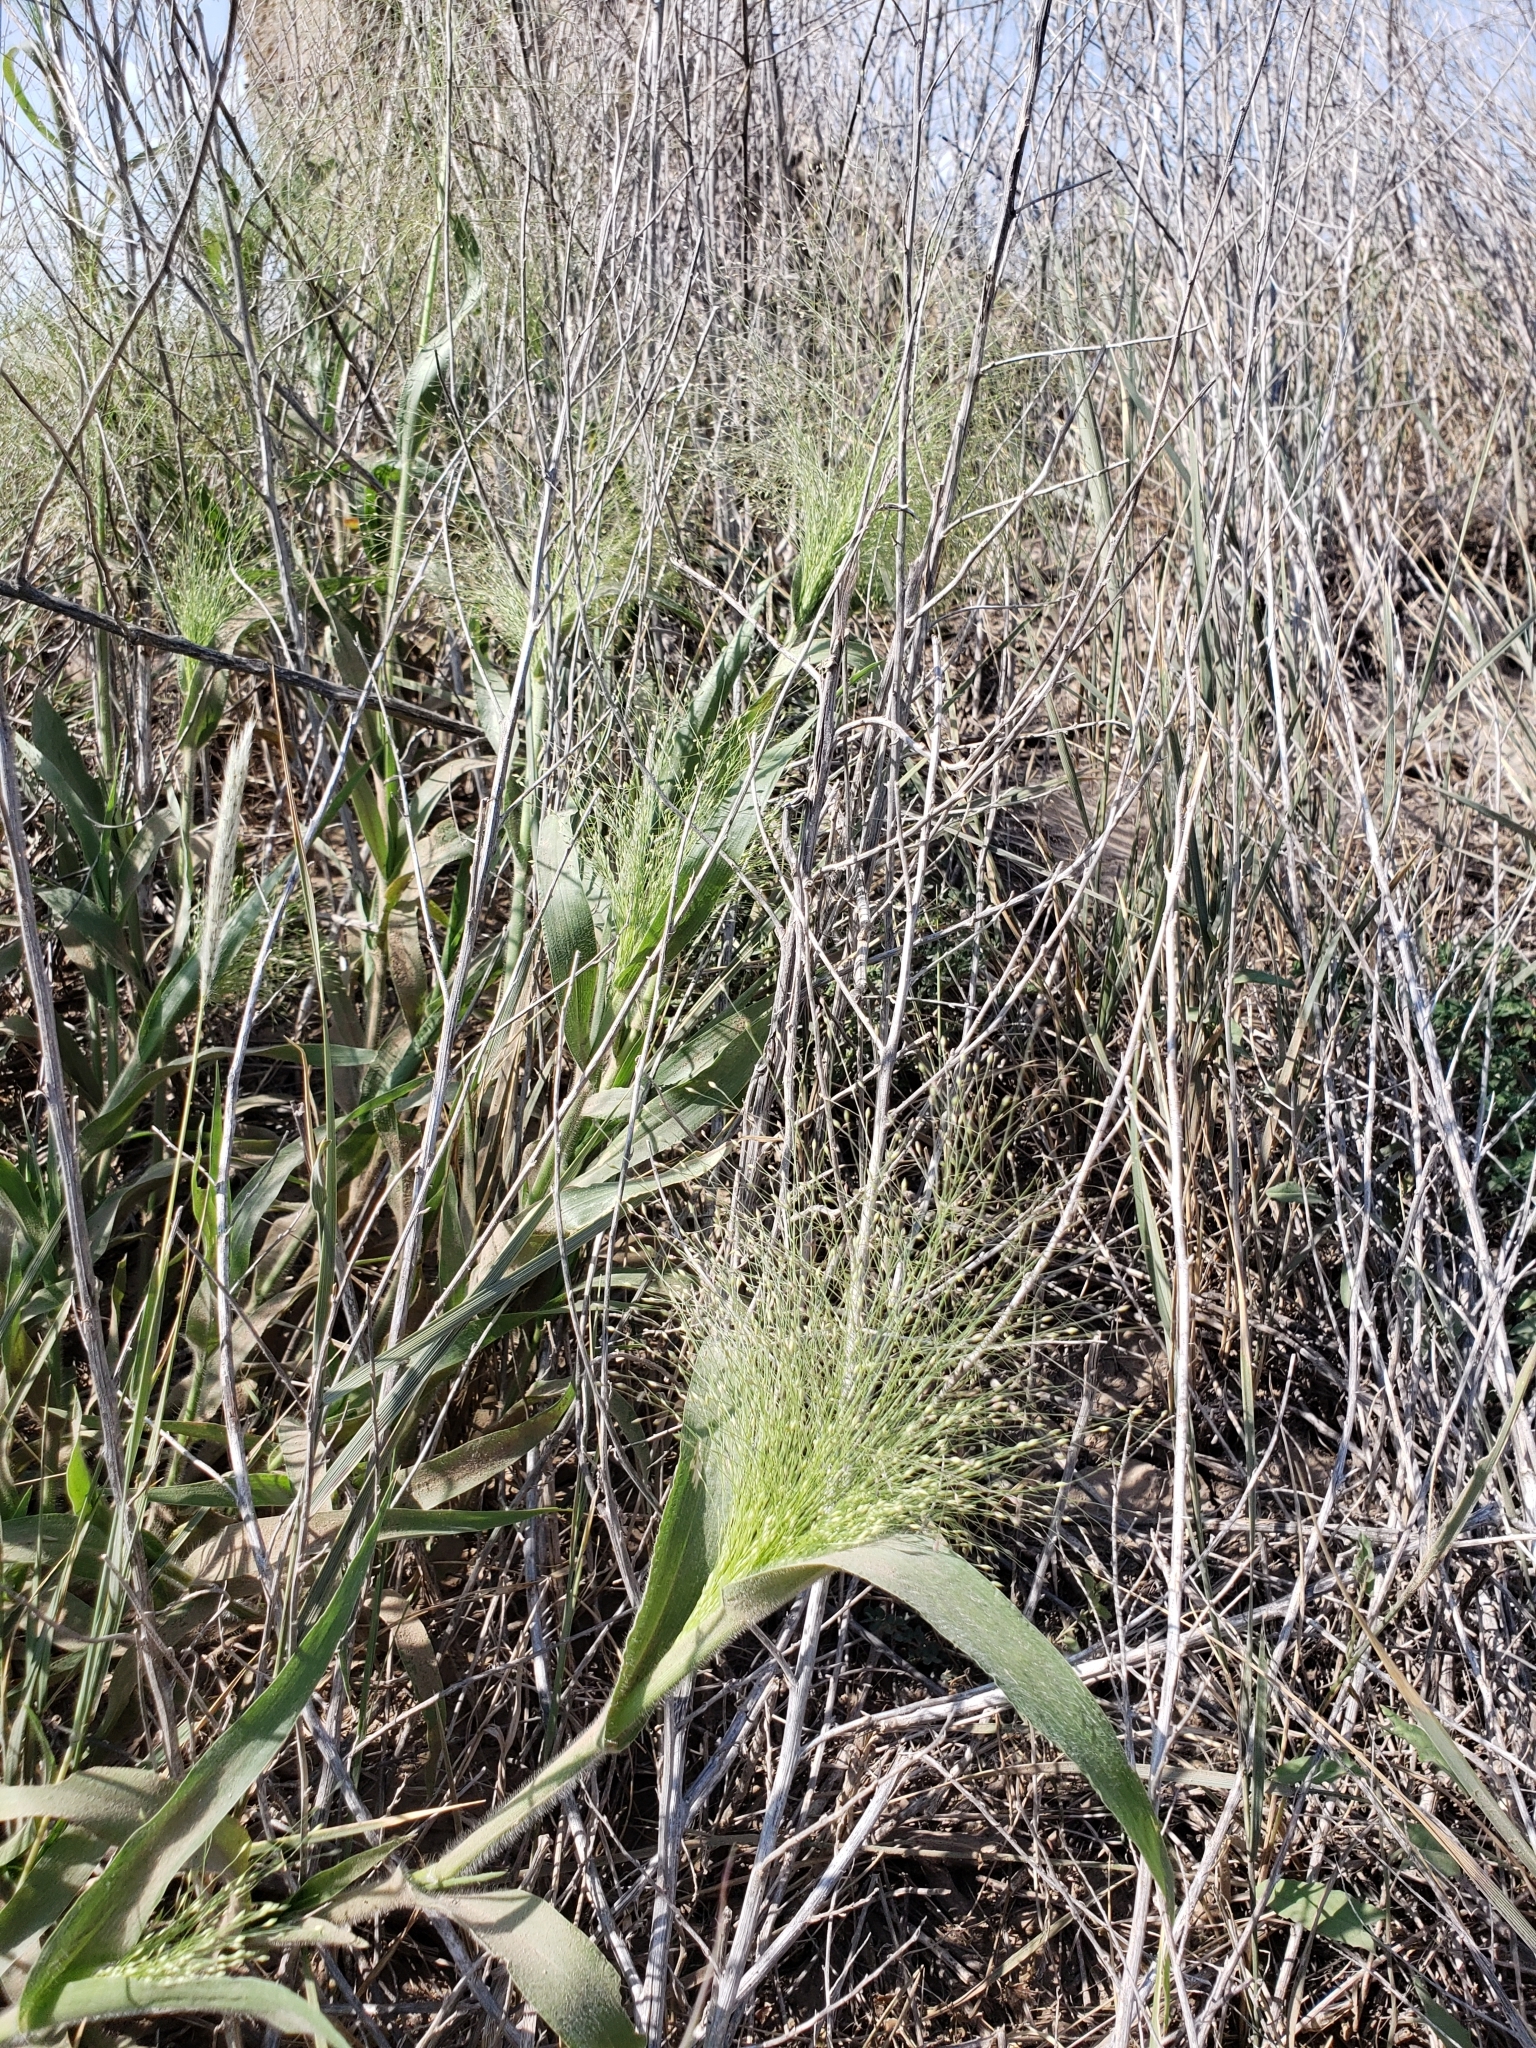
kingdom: Plantae
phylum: Tracheophyta
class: Liliopsida
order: Poales
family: Poaceae
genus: Panicum
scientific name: Panicum capillare
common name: Witch-grass
